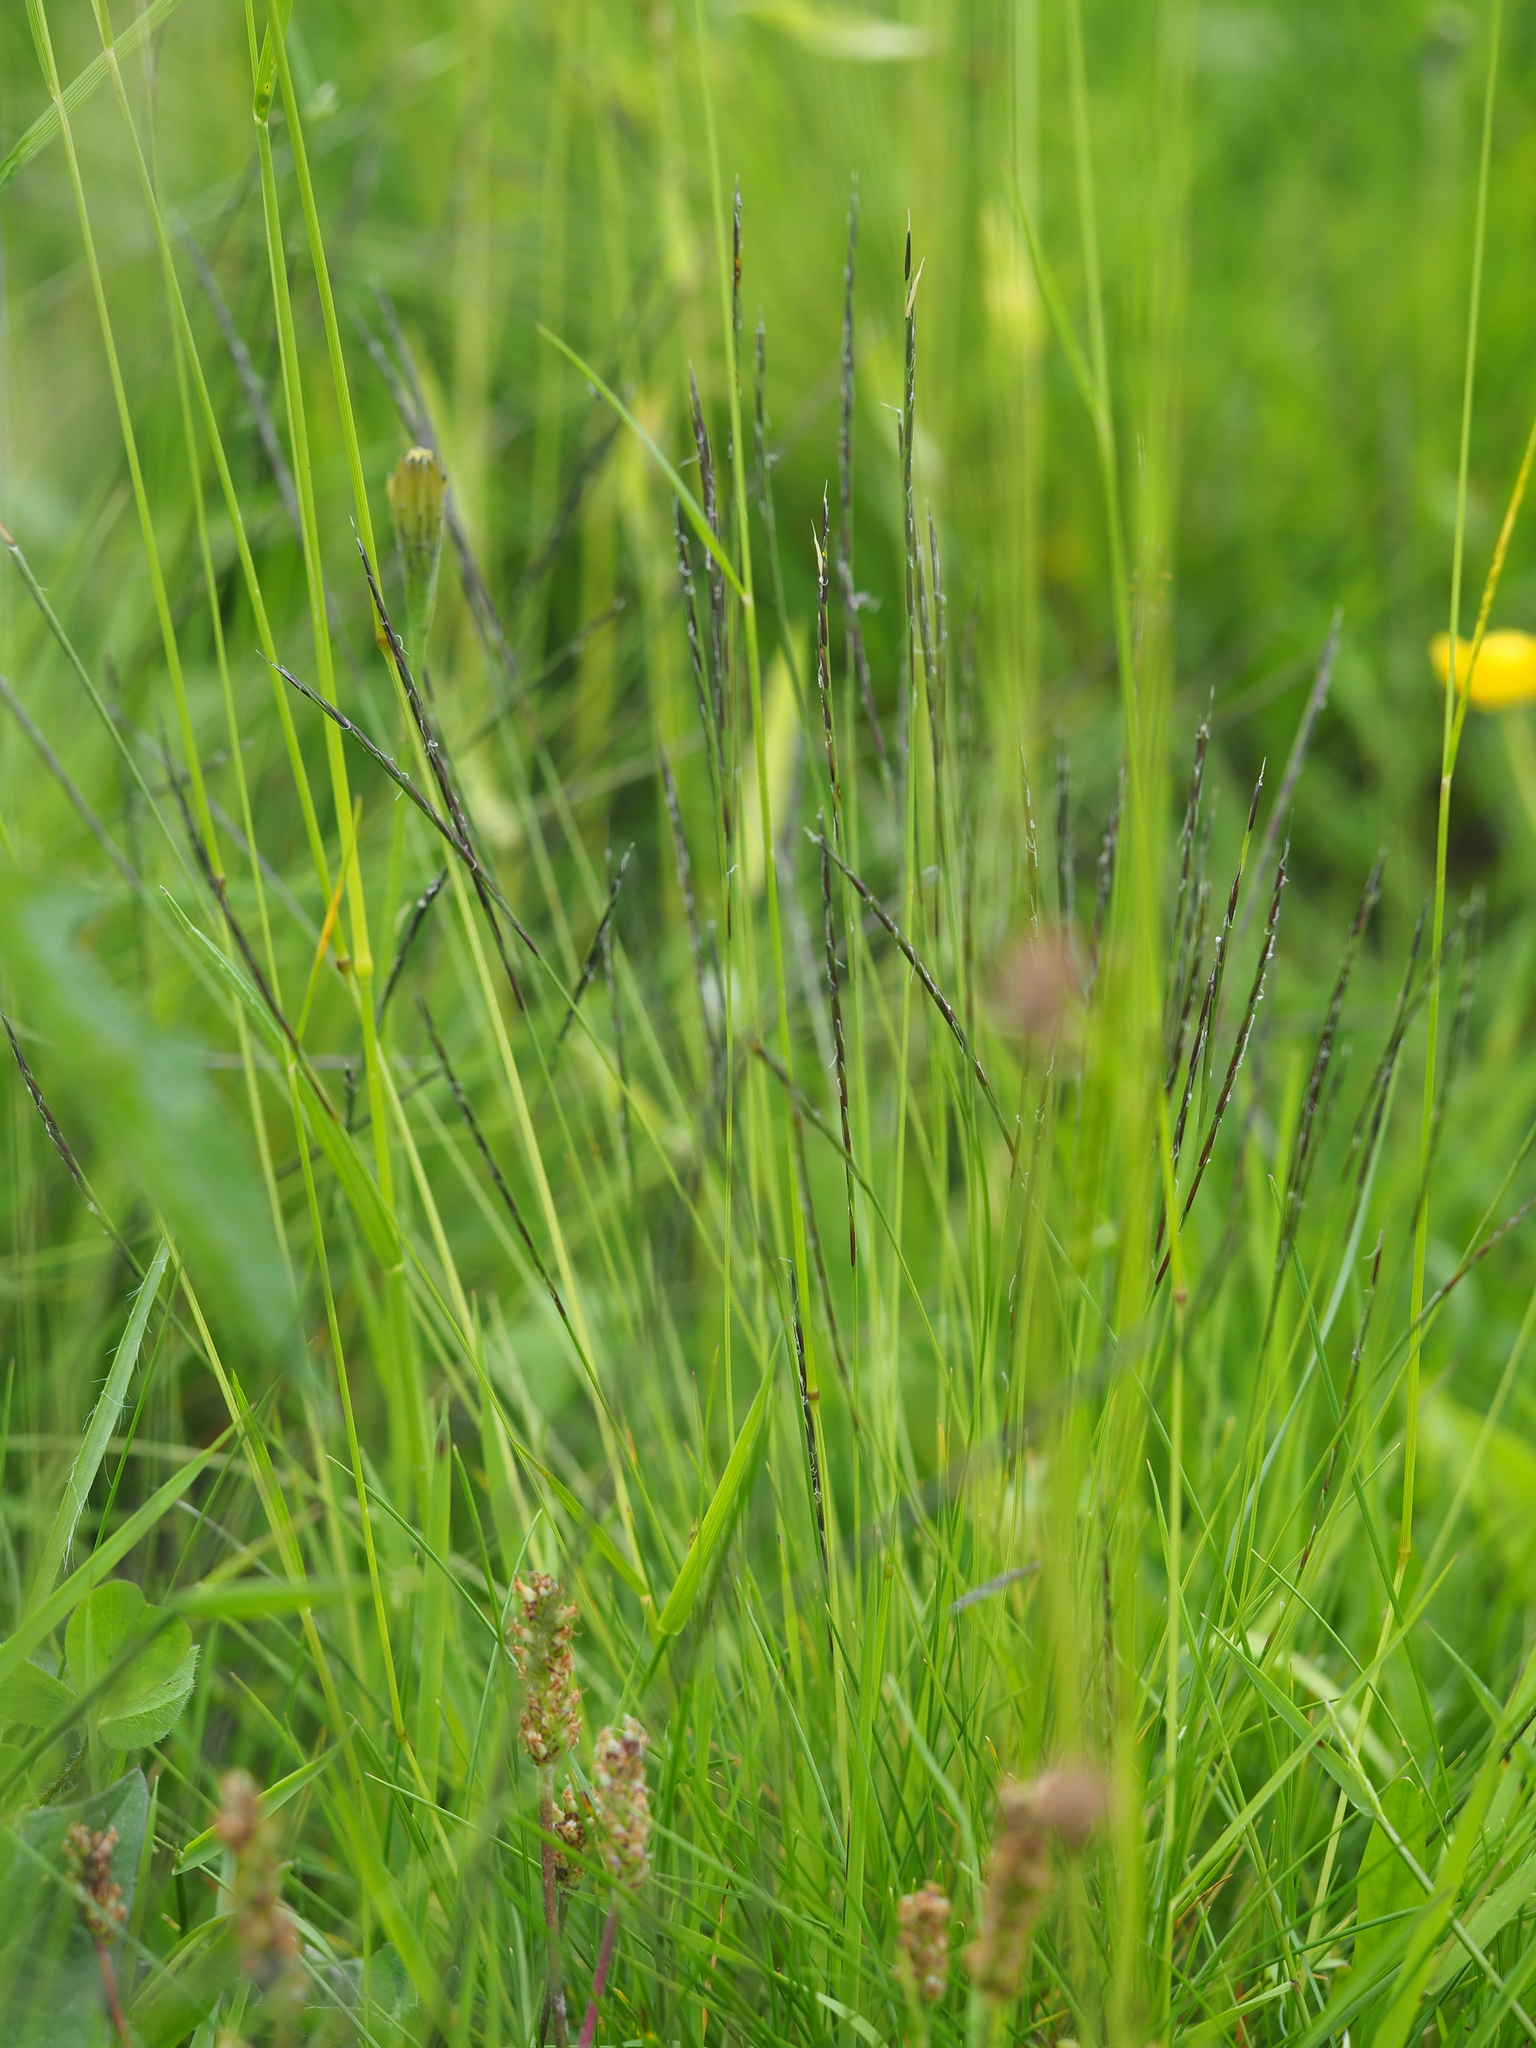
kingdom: Plantae
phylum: Tracheophyta
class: Liliopsida
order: Poales
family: Poaceae
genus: Nardus
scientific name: Nardus stricta
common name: Mat-grass
